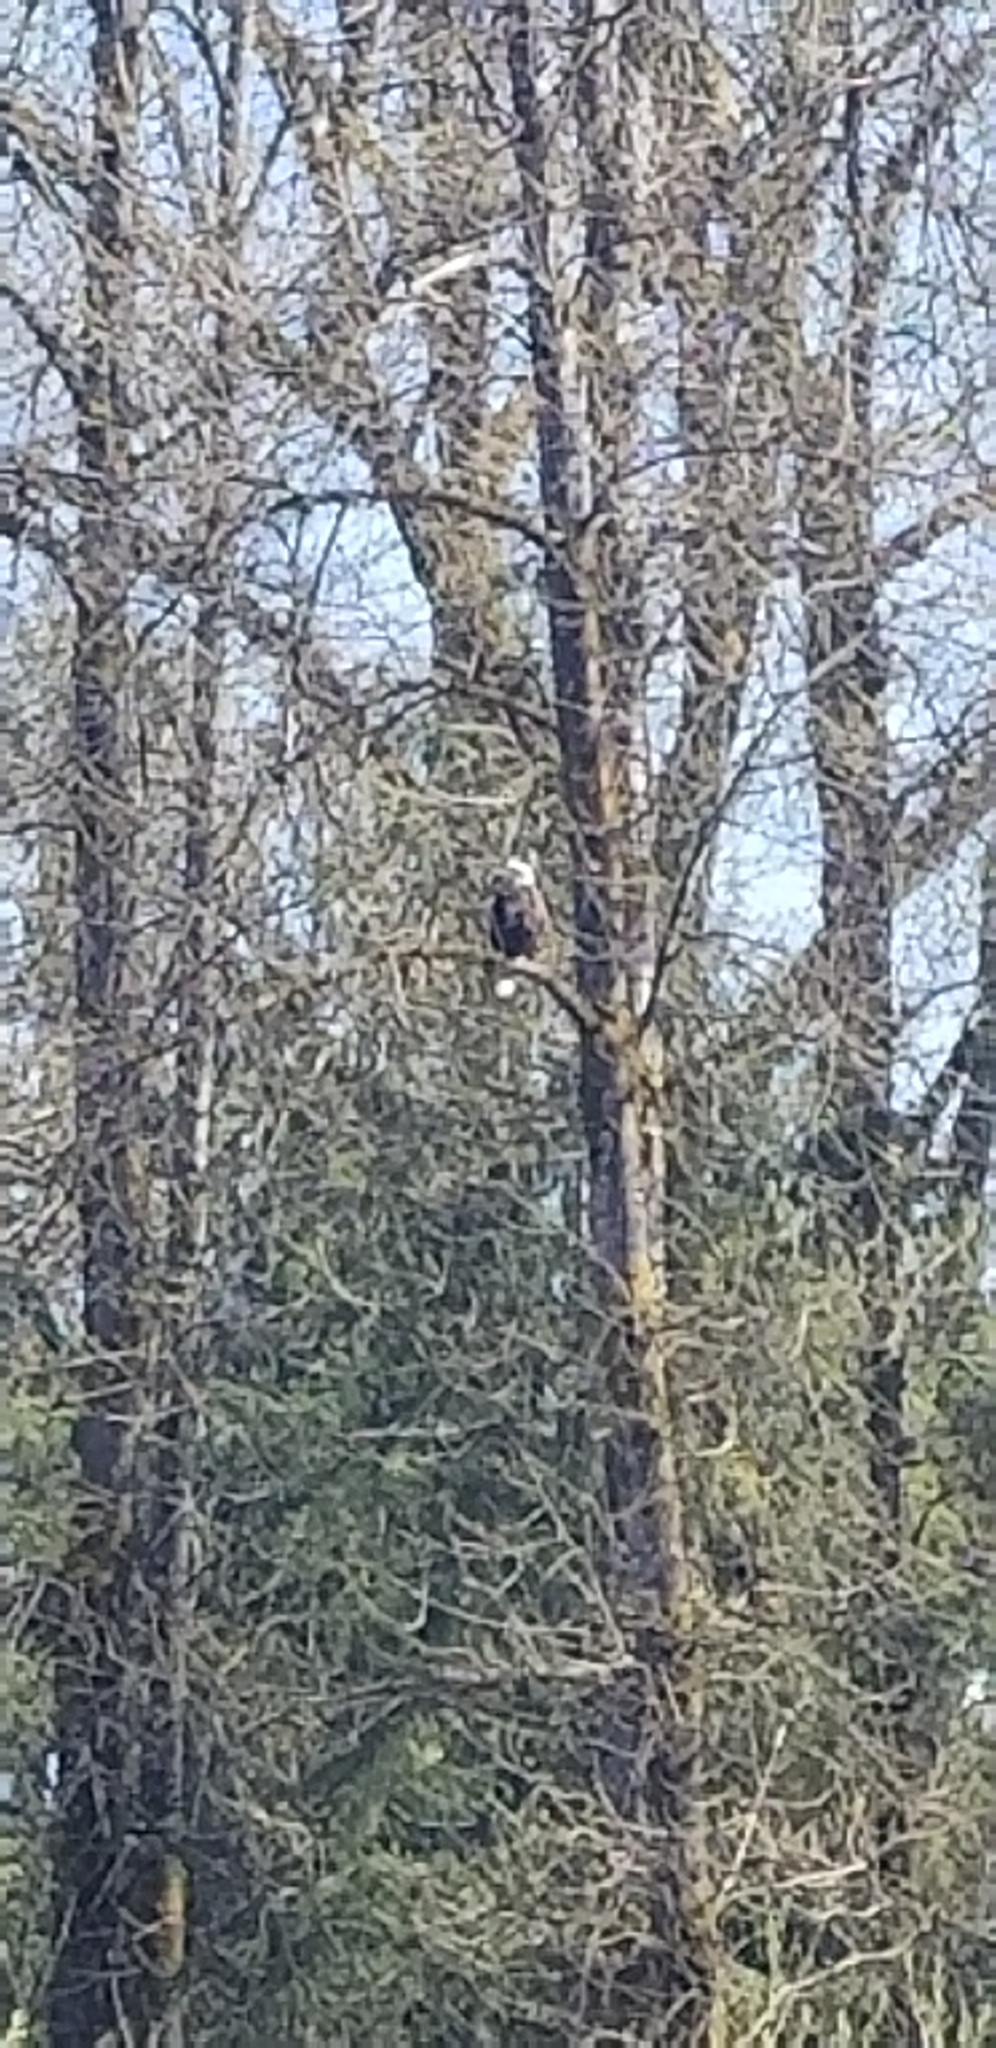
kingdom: Animalia
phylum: Chordata
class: Aves
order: Accipitriformes
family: Accipitridae
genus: Haliaeetus
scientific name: Haliaeetus leucocephalus
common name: Bald eagle
